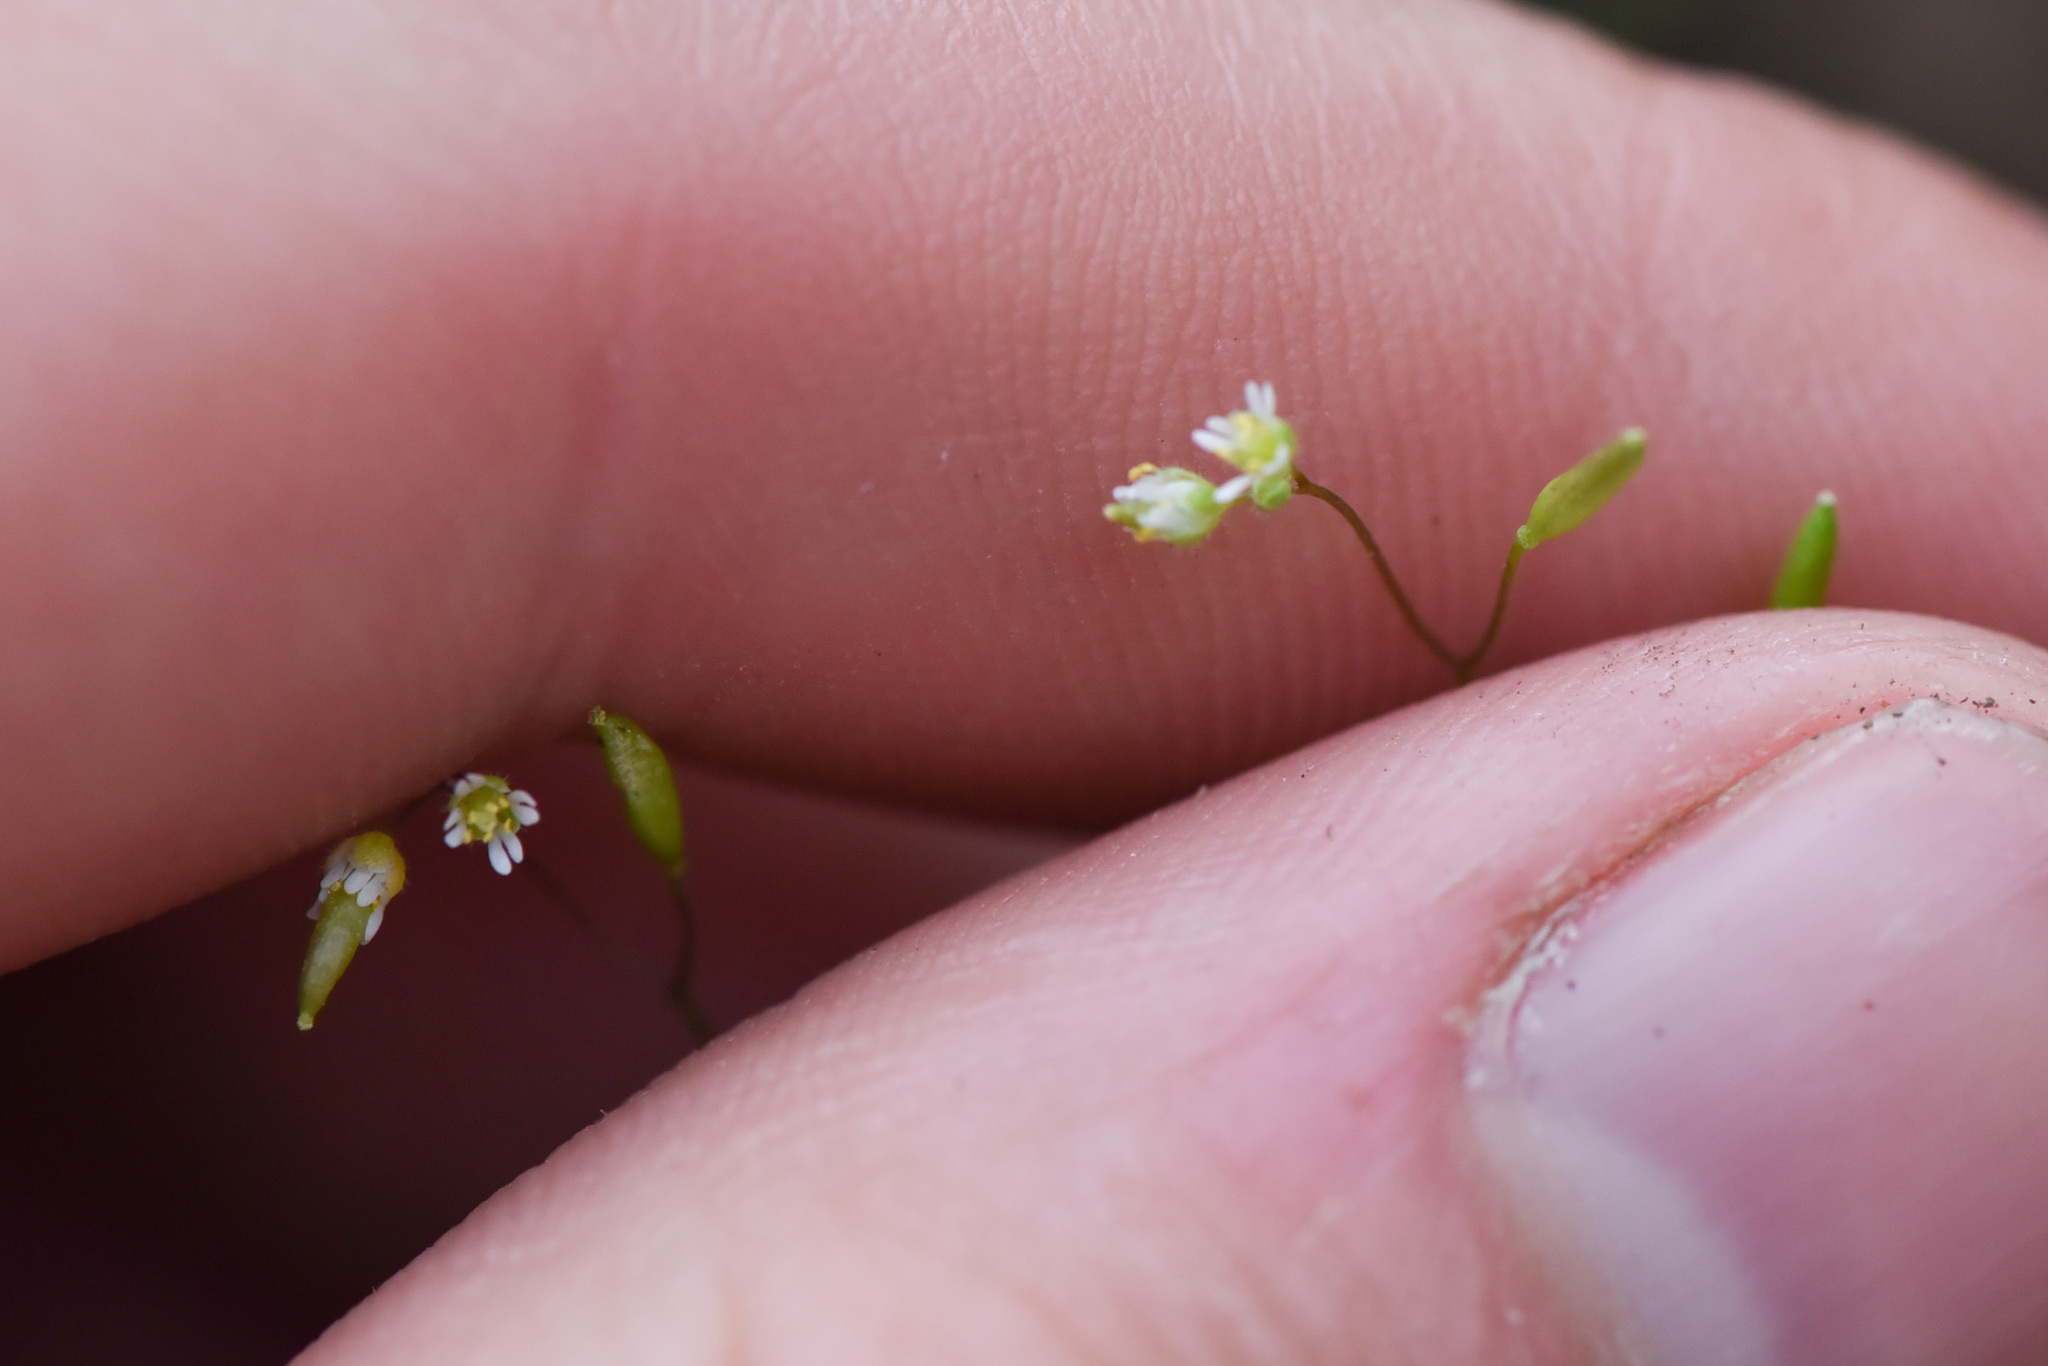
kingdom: Plantae
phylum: Tracheophyta
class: Magnoliopsida
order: Brassicales
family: Brassicaceae
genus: Draba
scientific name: Draba verna
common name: Spring draba
